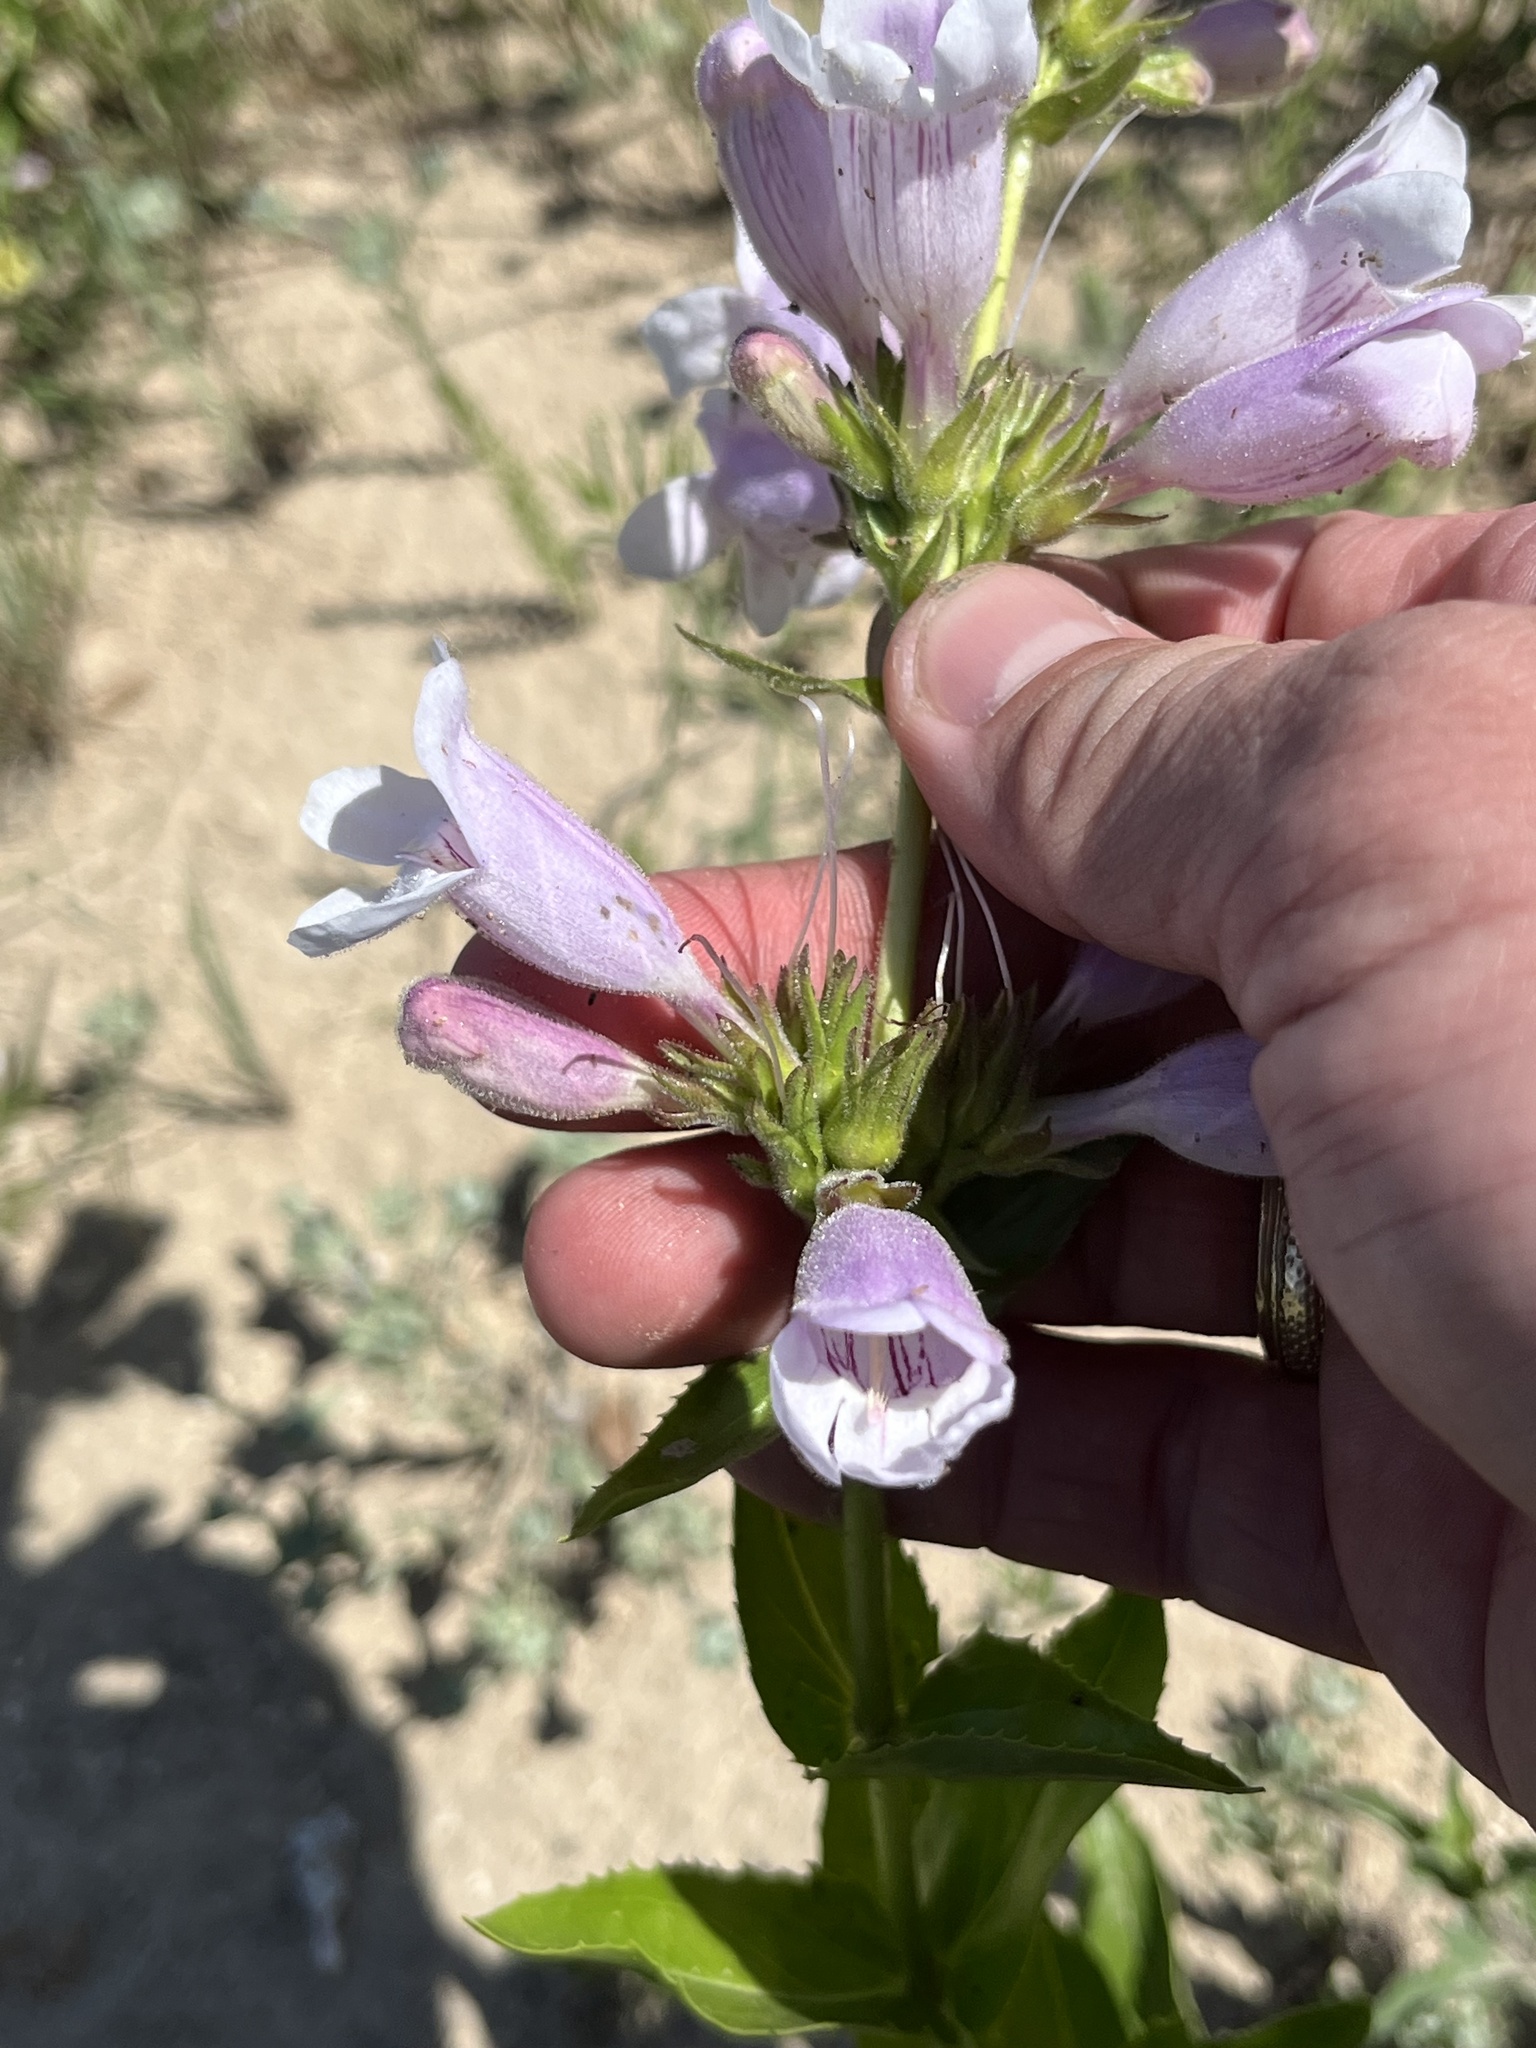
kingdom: Plantae
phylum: Tracheophyta
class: Magnoliopsida
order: Lamiales
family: Plantaginaceae
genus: Penstemon
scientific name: Penstemon cobaea
